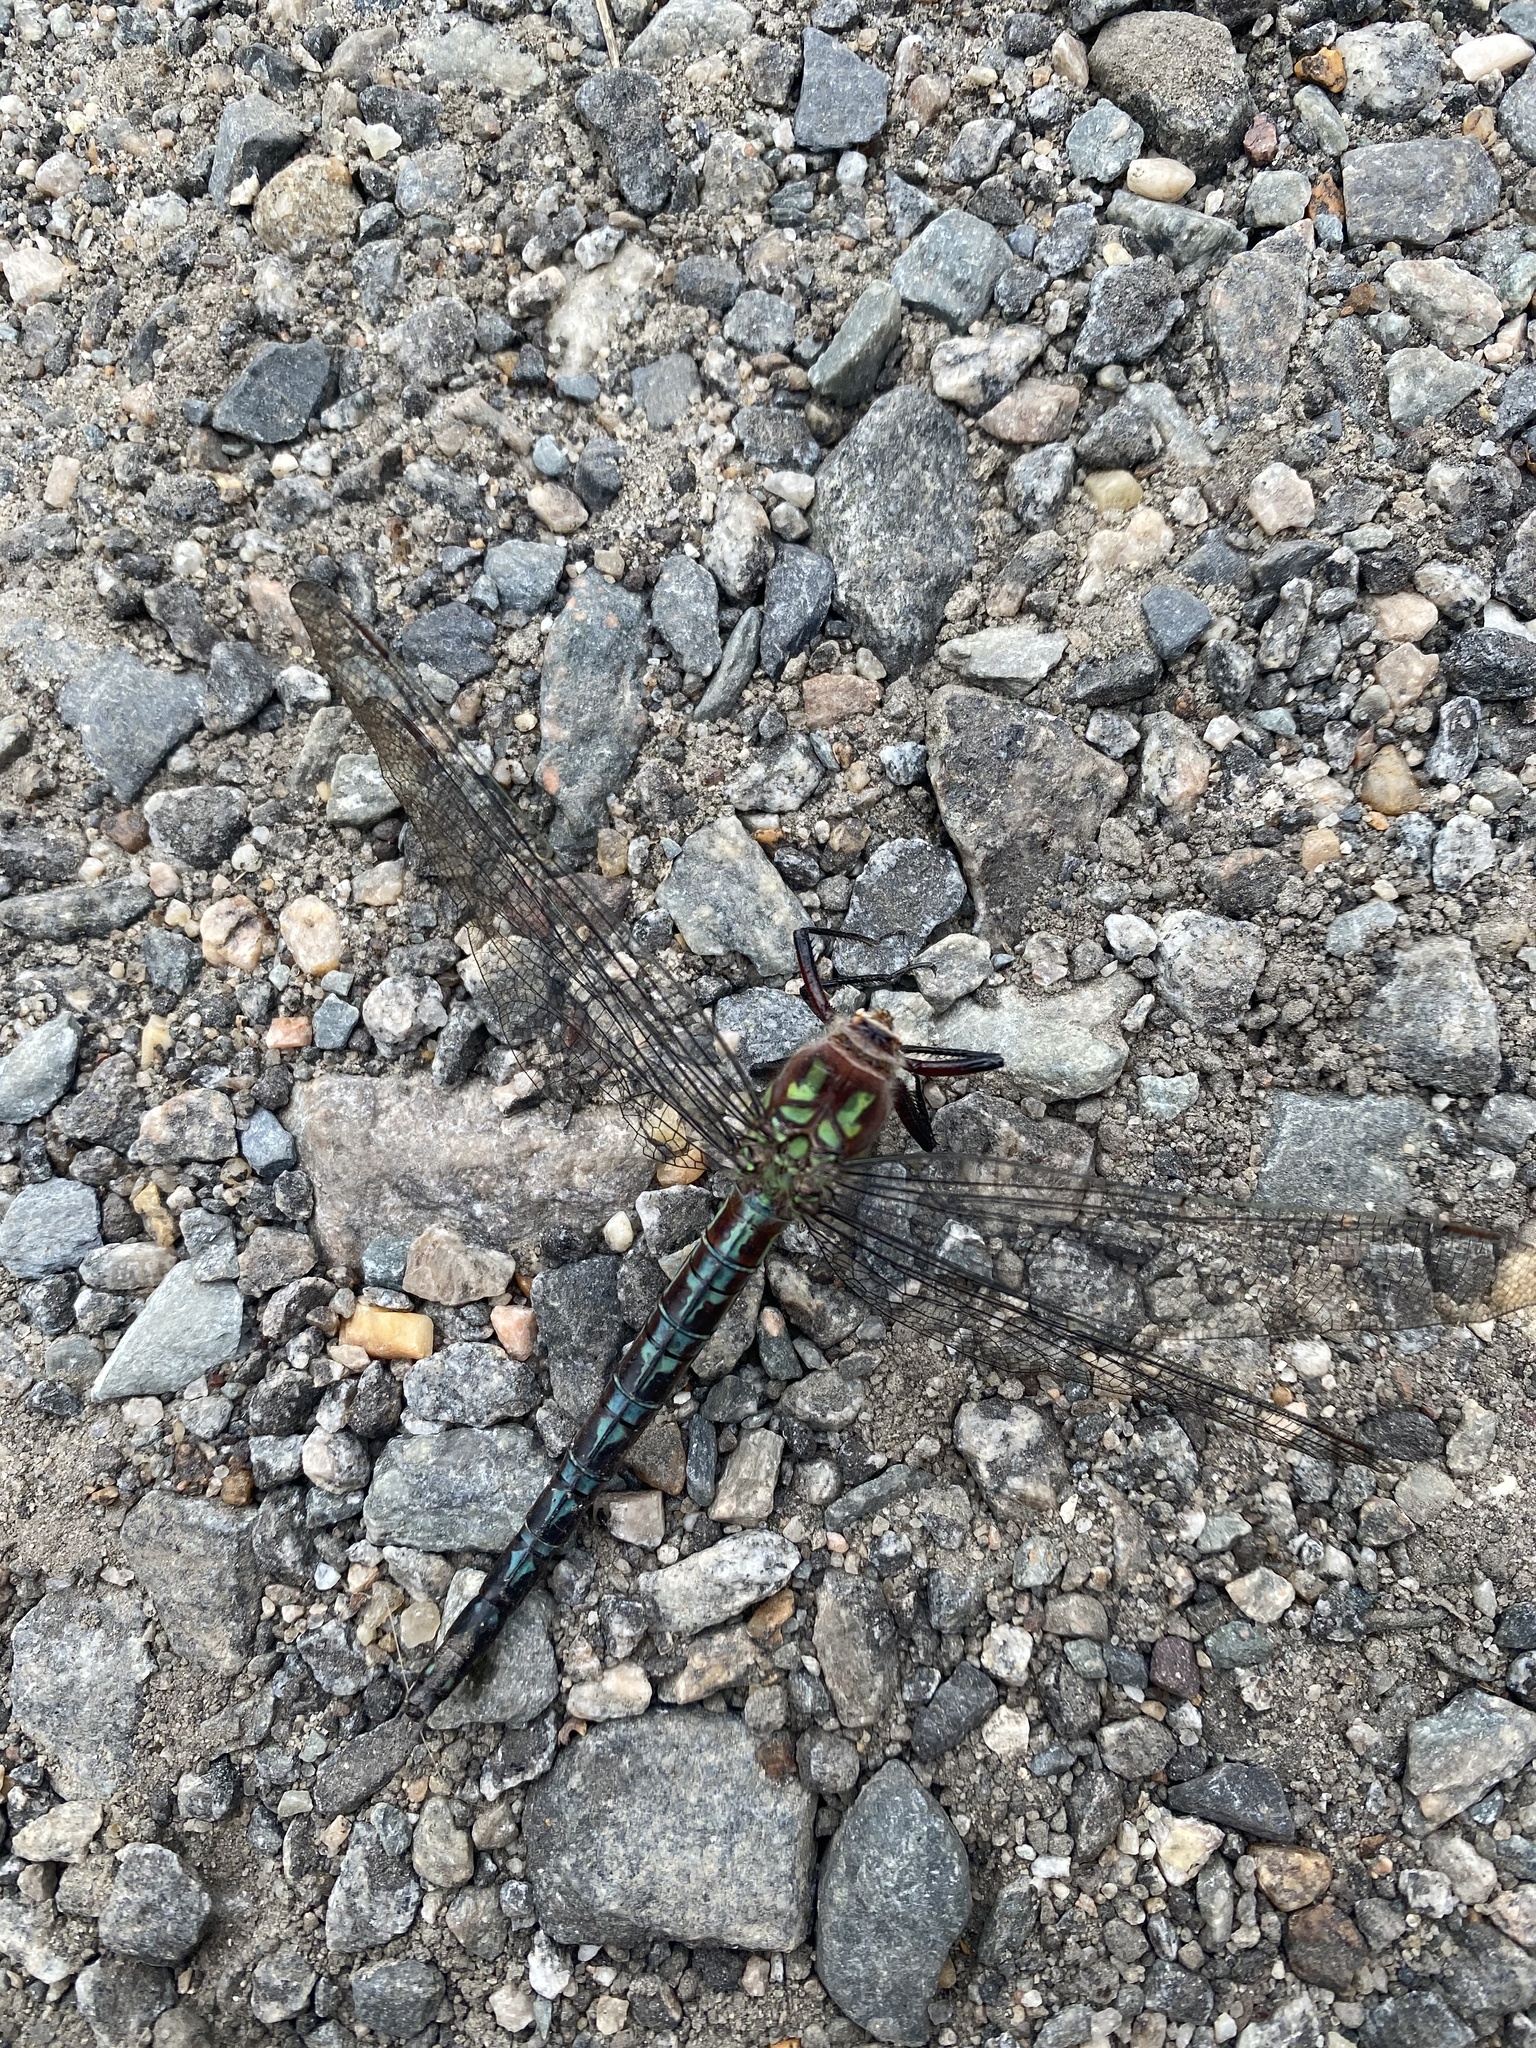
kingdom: Animalia
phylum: Arthropoda
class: Insecta
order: Odonata
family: Aeshnidae
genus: Nasiaeschna
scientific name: Nasiaeschna pentacantha
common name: Cyrano darner
